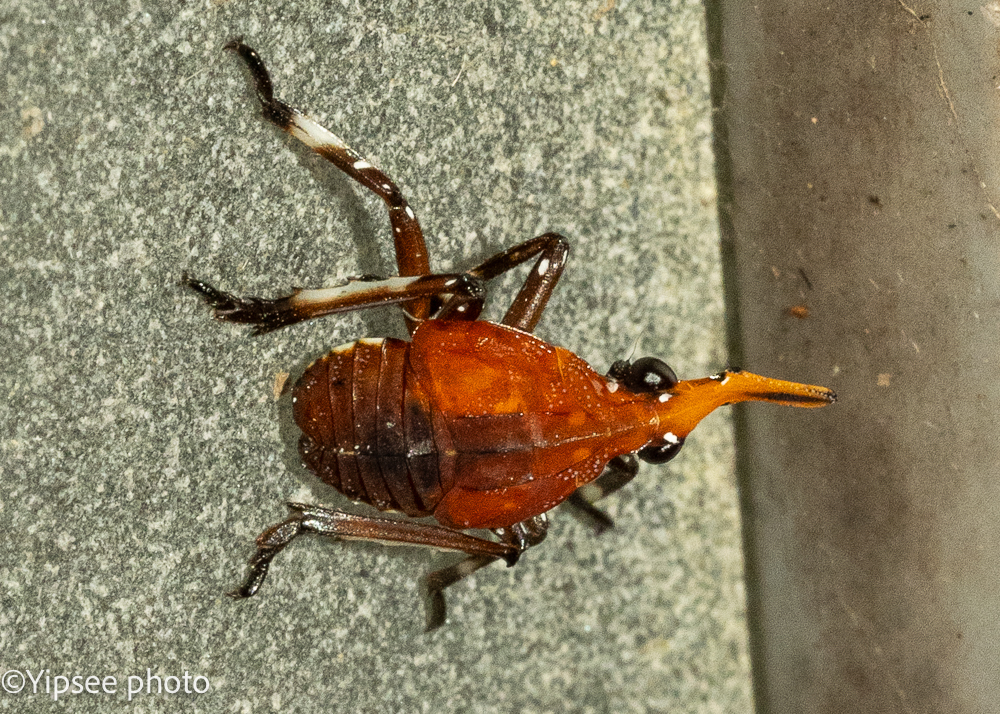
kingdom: Animalia
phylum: Arthropoda
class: Insecta
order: Hemiptera
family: Fulgoridae
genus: Kalidasa
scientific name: Kalidasa nigromaculata
